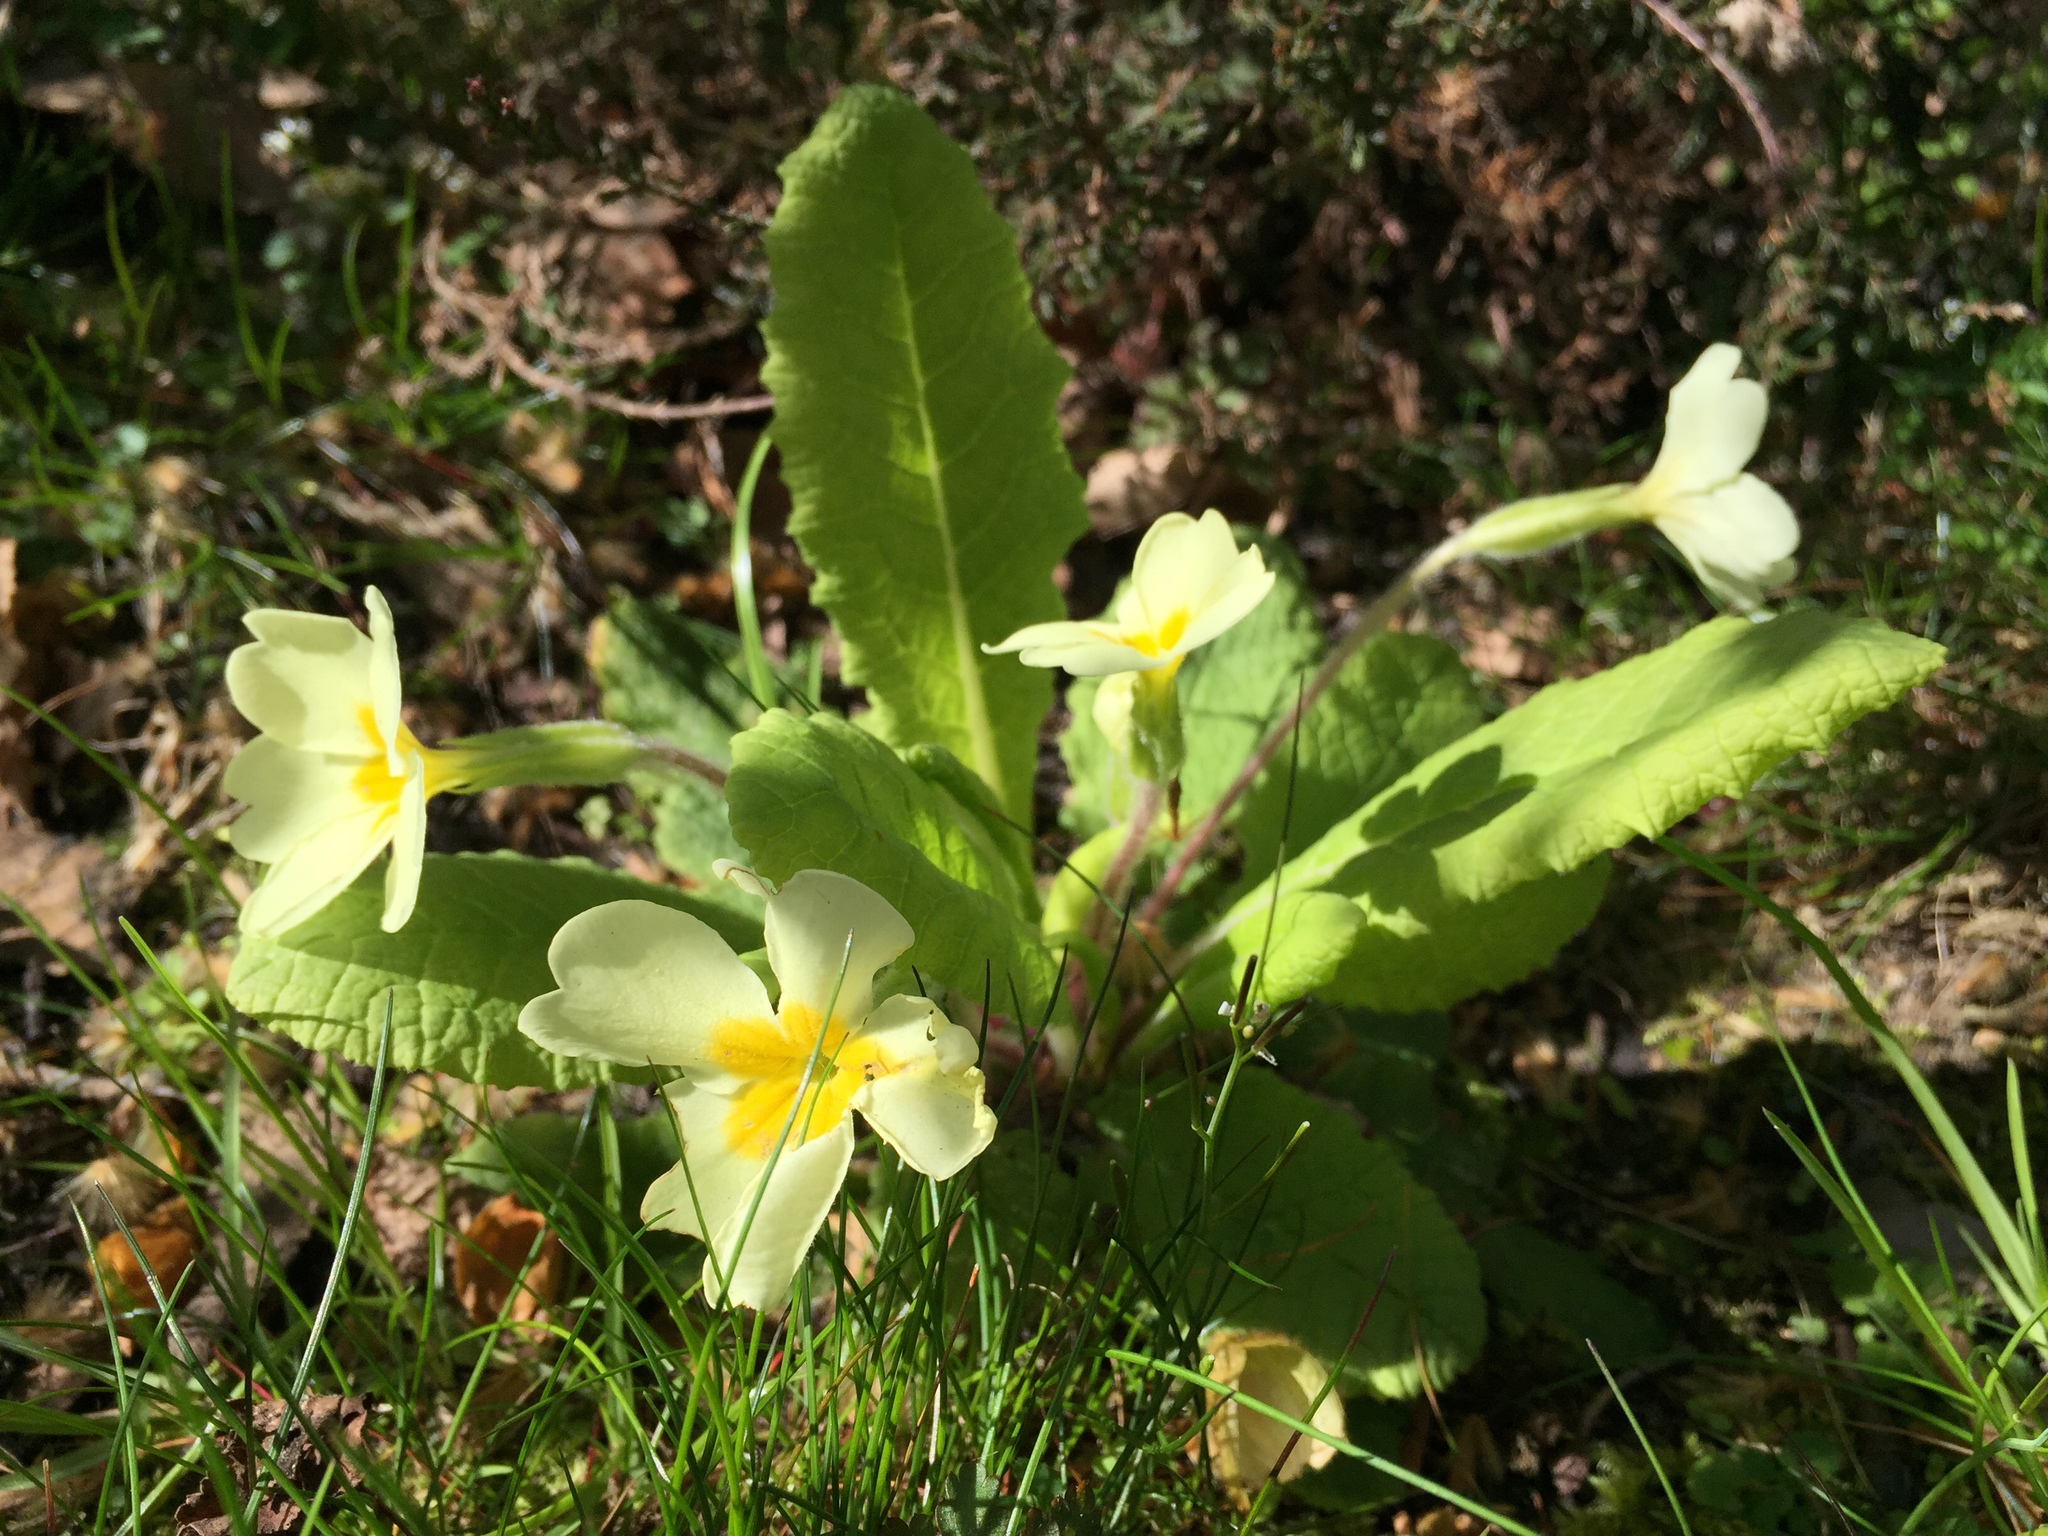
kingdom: Plantae
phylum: Tracheophyta
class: Magnoliopsida
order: Ericales
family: Primulaceae
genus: Primula
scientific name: Primula vulgaris
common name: Primrose
